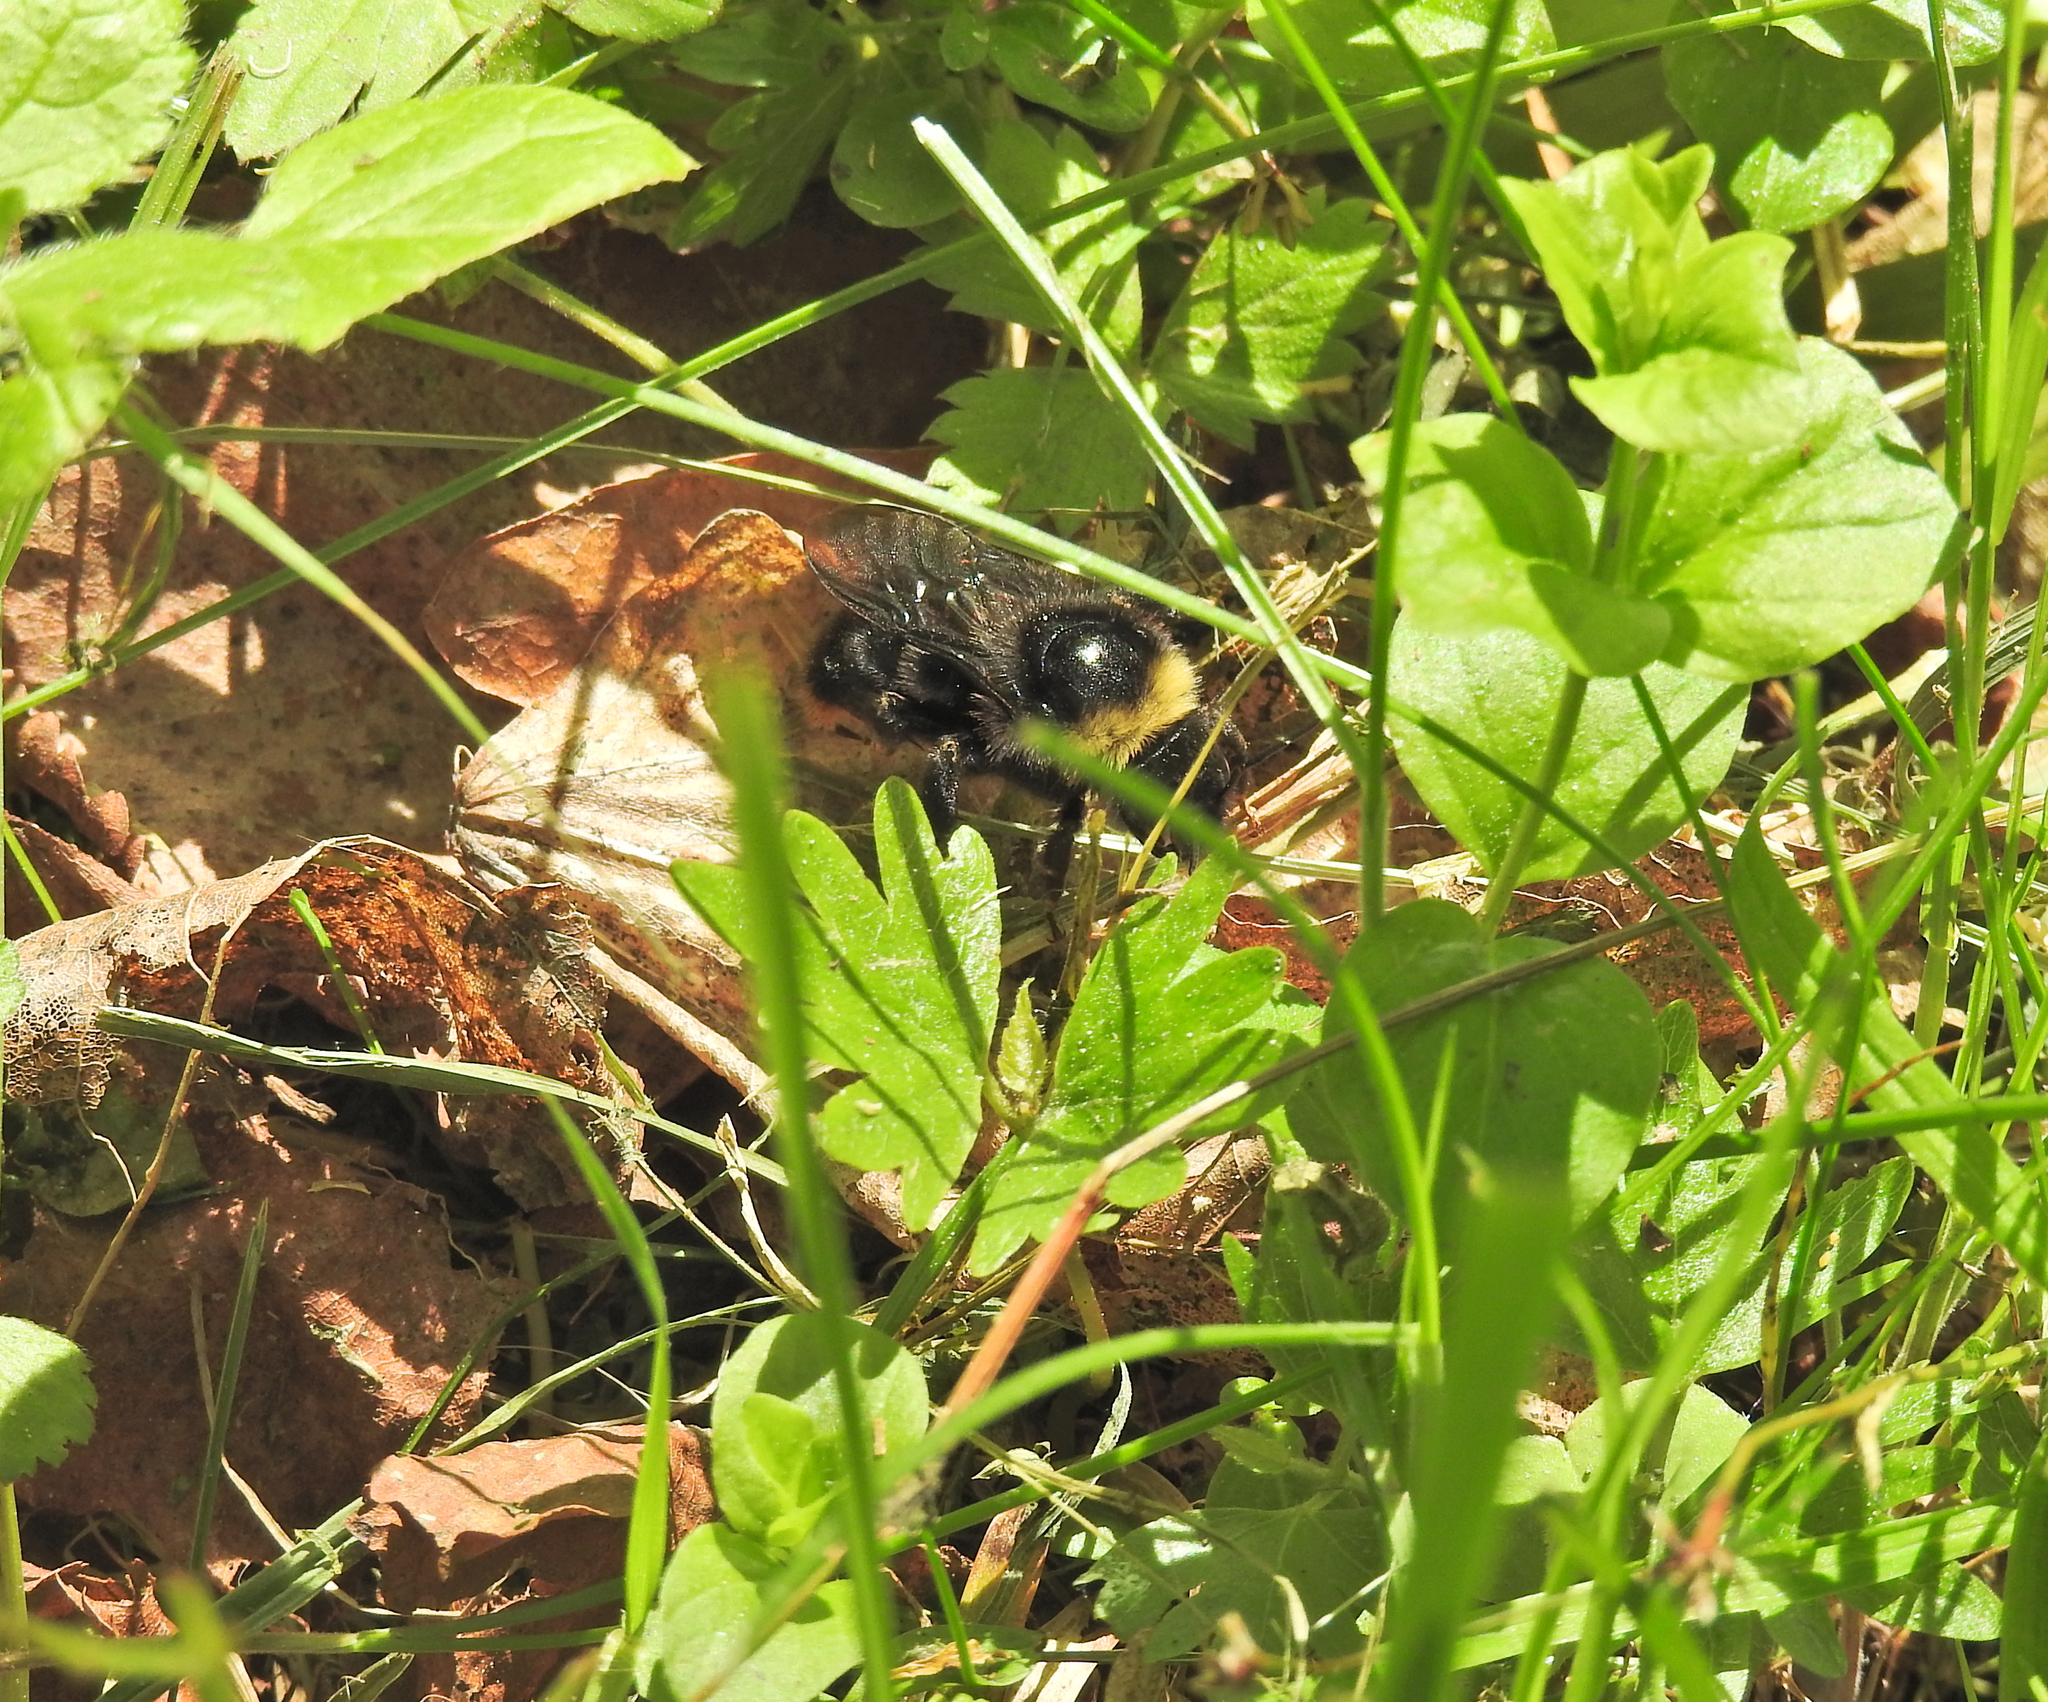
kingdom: Animalia
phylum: Arthropoda
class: Insecta
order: Hymenoptera
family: Apidae
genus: Bombus
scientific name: Bombus rupestris
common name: Hill cuckoo-bee
